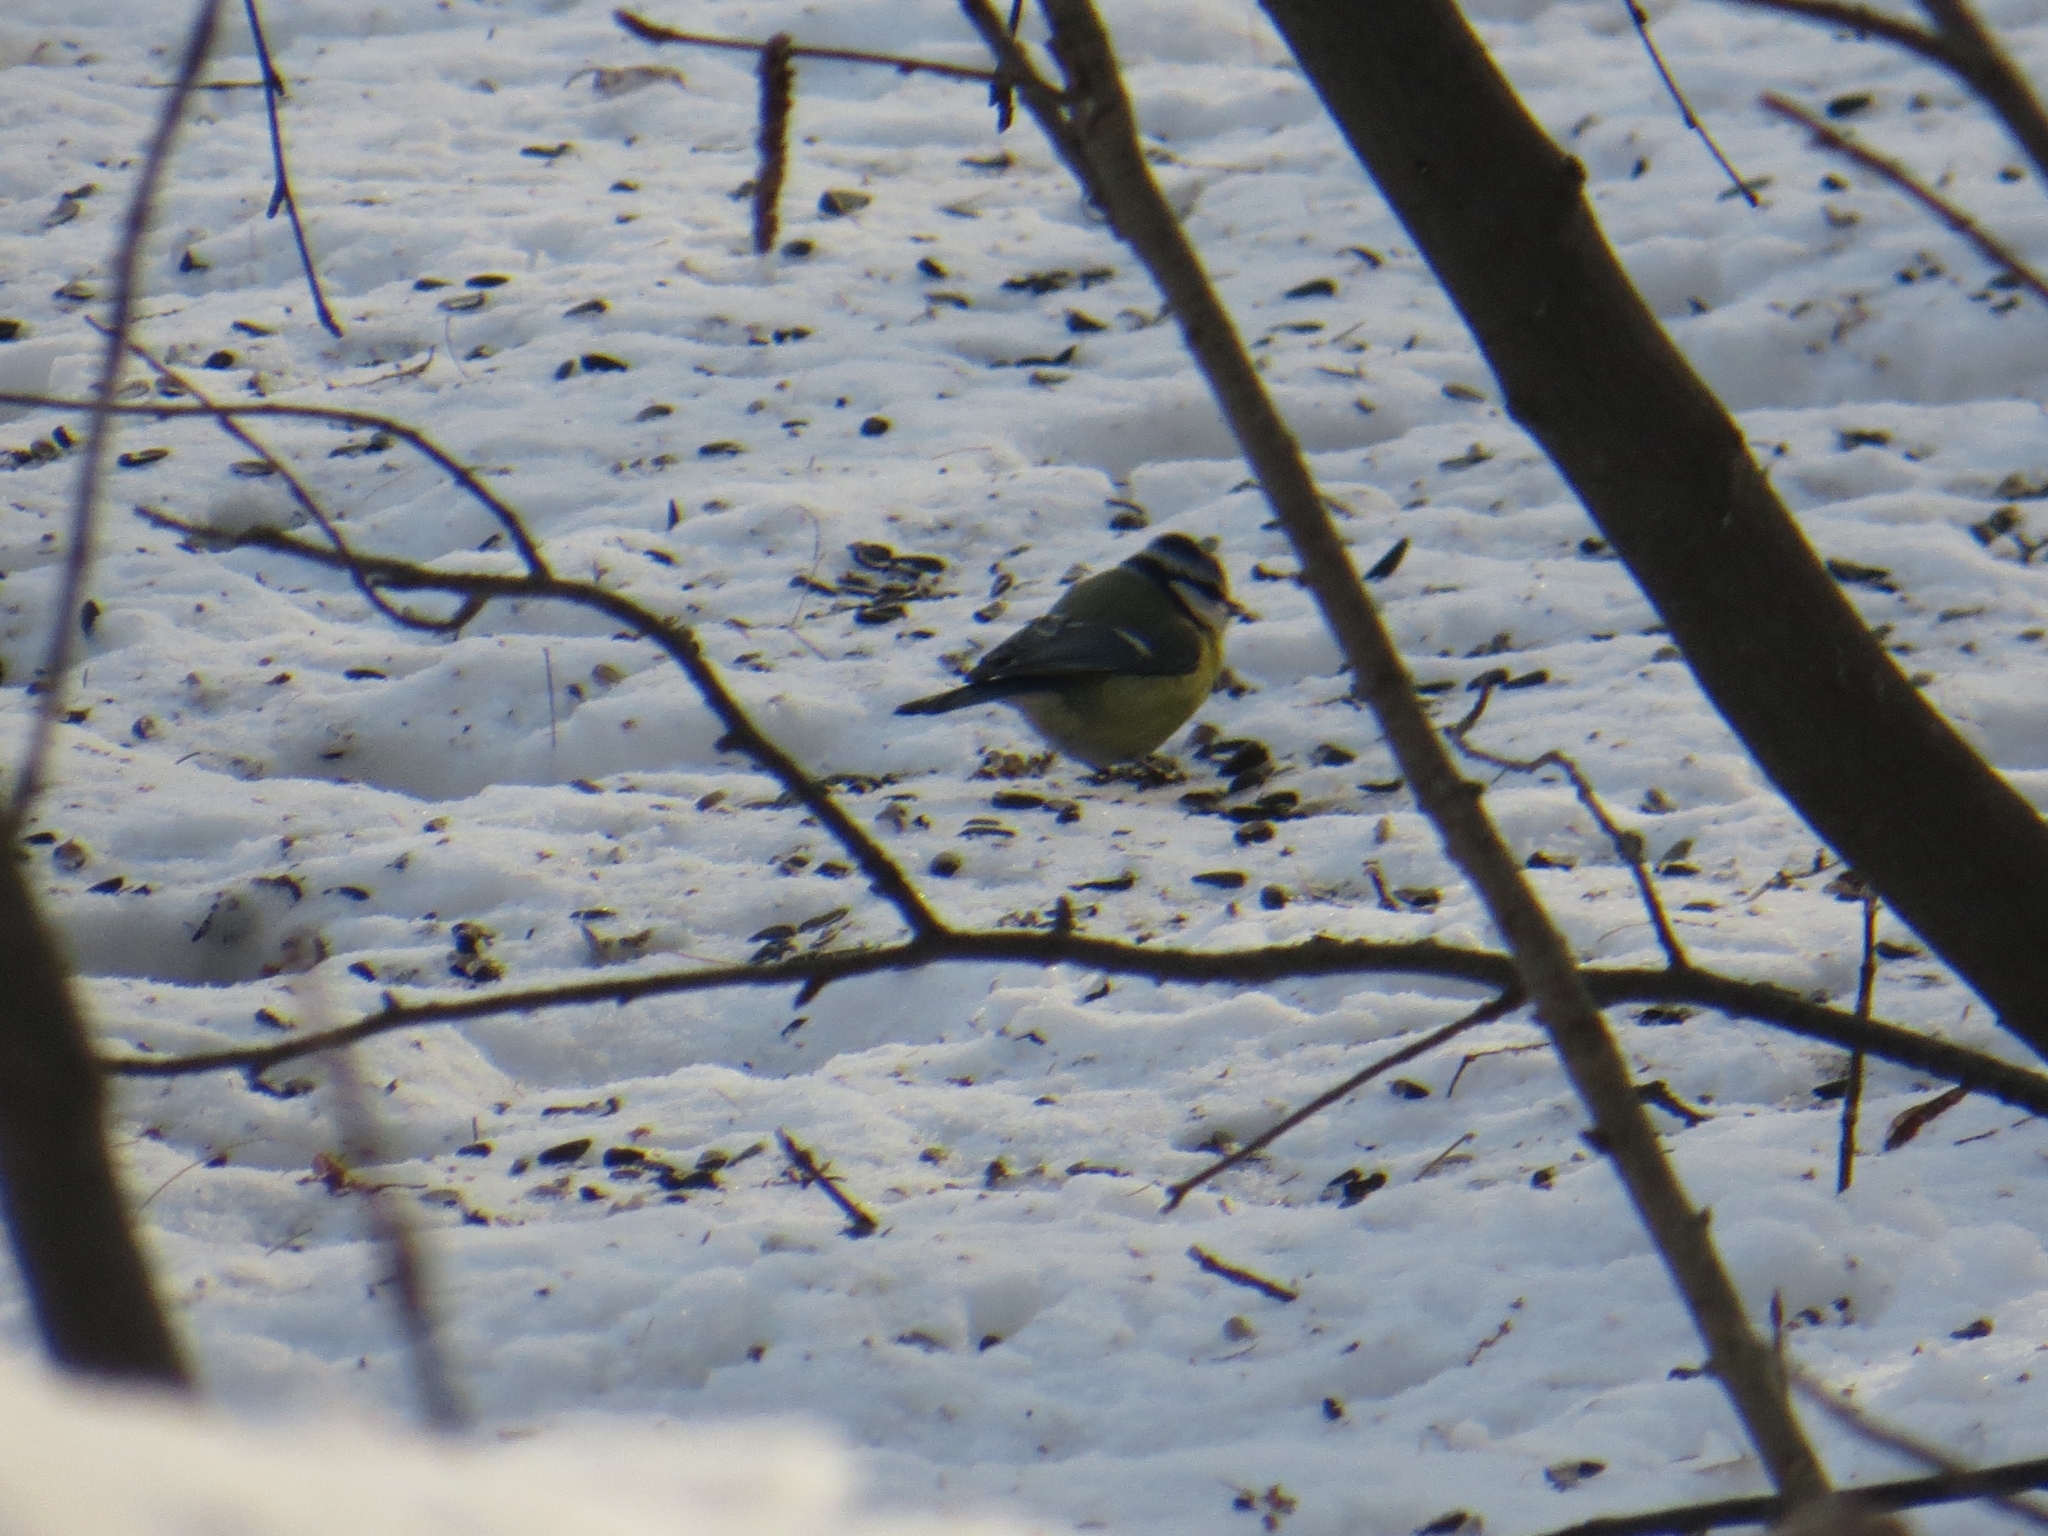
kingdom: Animalia
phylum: Chordata
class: Aves
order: Passeriformes
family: Paridae
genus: Cyanistes
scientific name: Cyanistes caeruleus
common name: Eurasian blue tit
